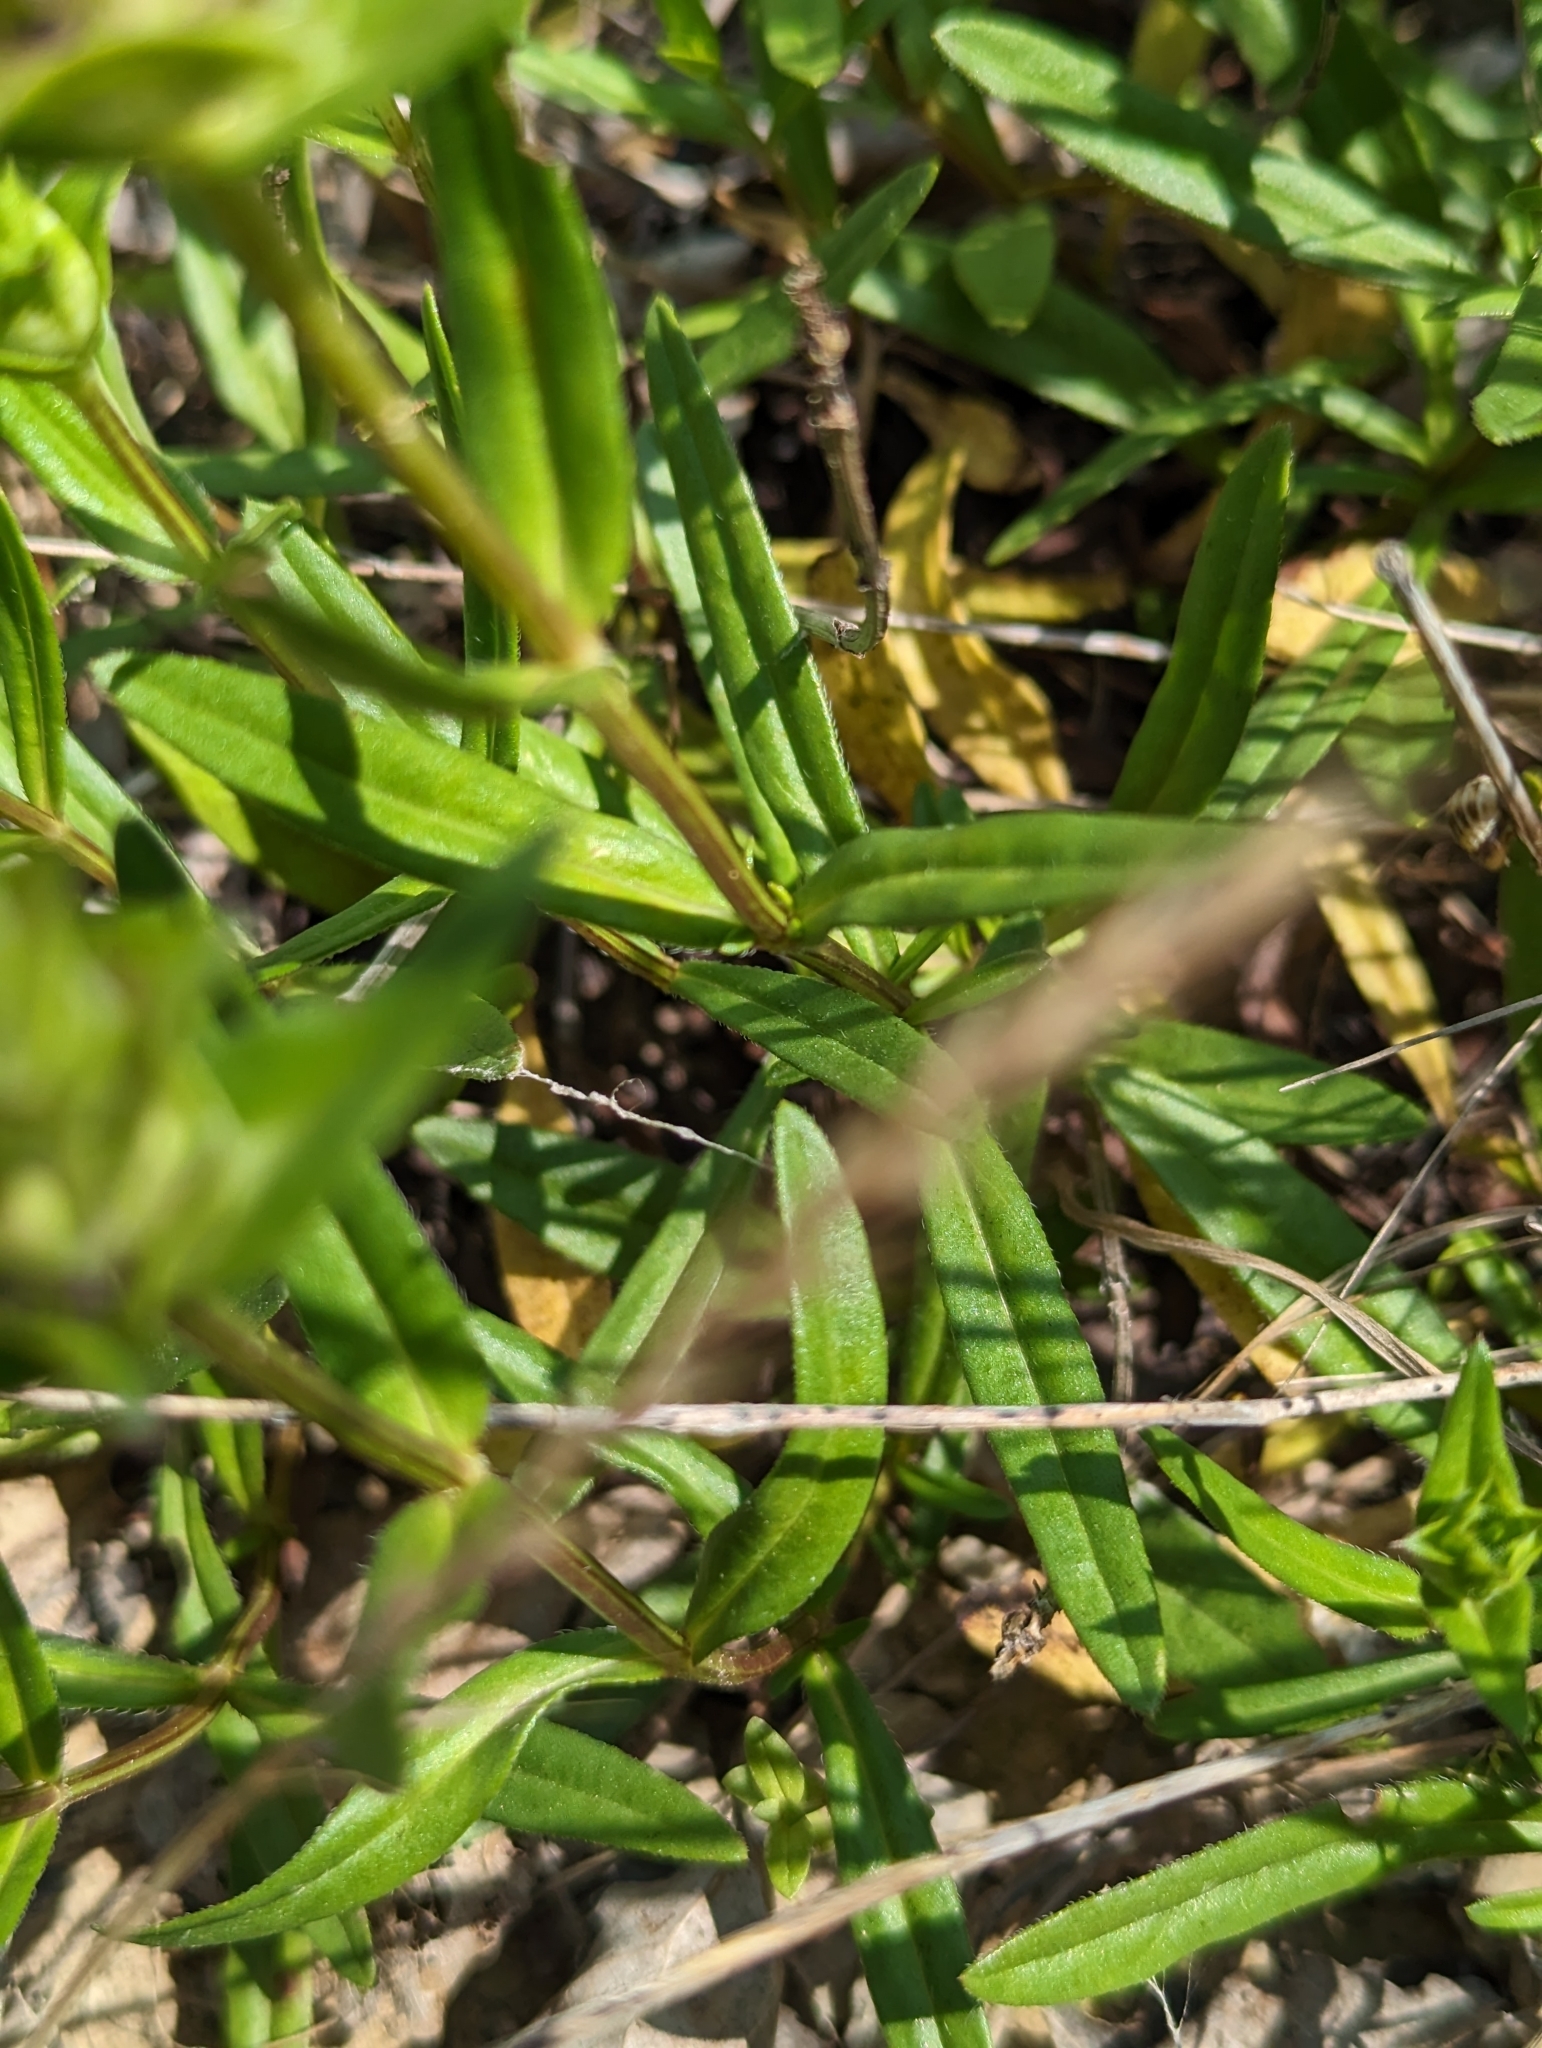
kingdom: Plantae
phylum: Tracheophyta
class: Magnoliopsida
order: Lamiales
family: Lamiaceae
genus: Prunella
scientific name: Prunella hyssopifolia
